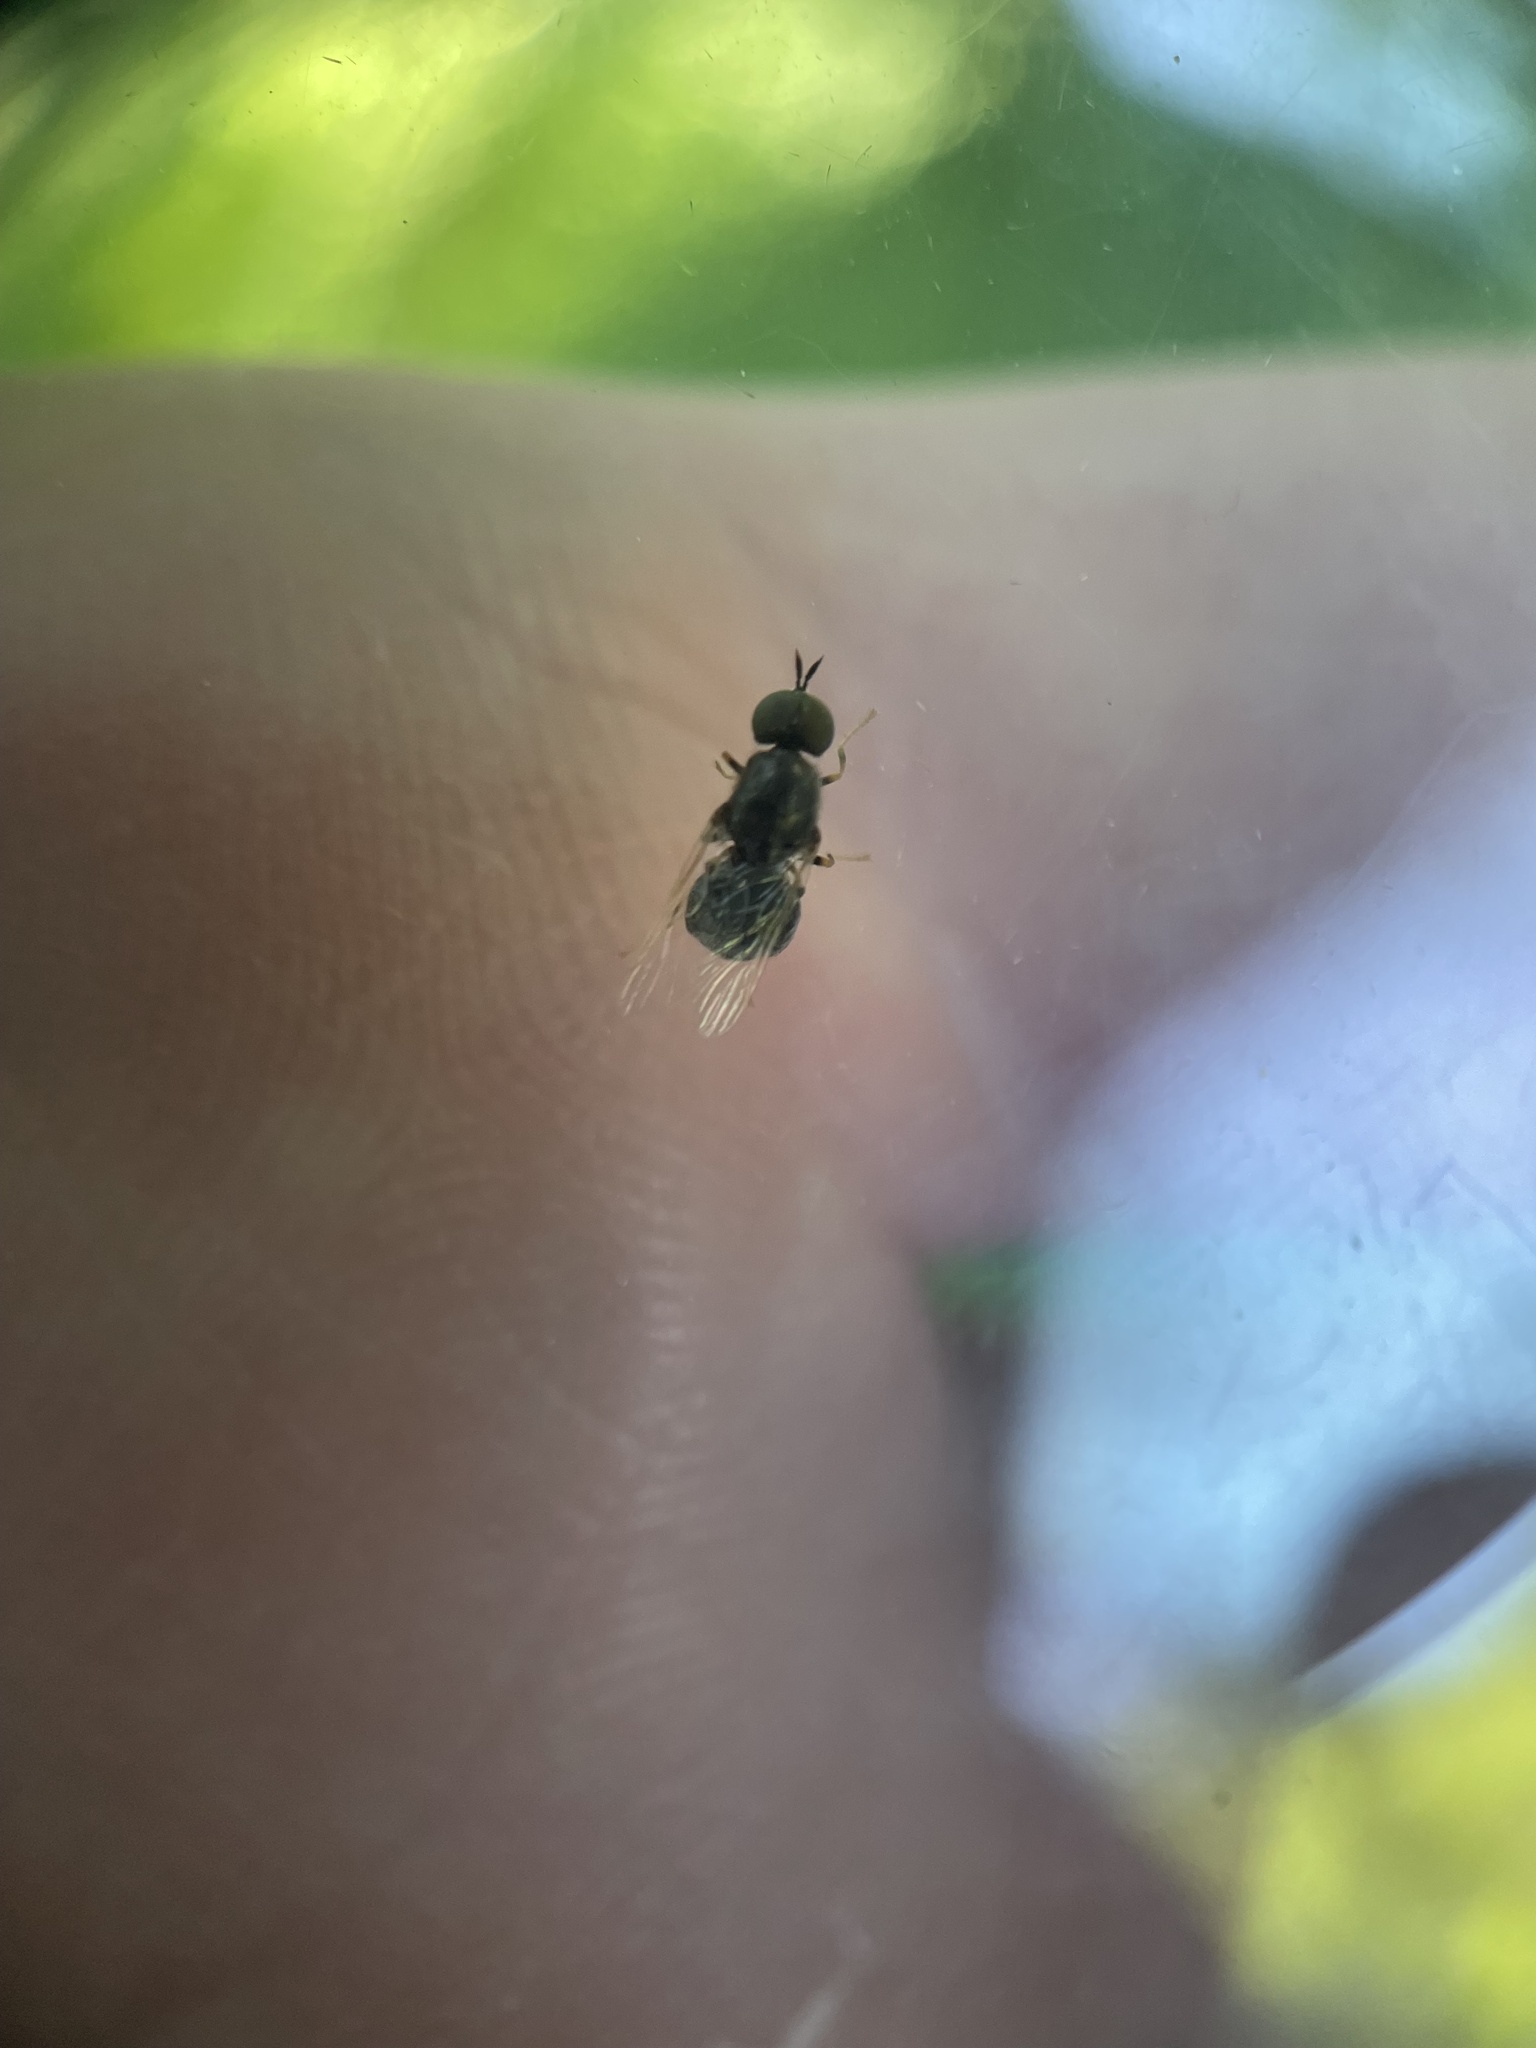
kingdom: Animalia
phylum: Arthropoda
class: Insecta
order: Diptera
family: Stratiomyidae
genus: Nemotelus
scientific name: Nemotelus bruesii
